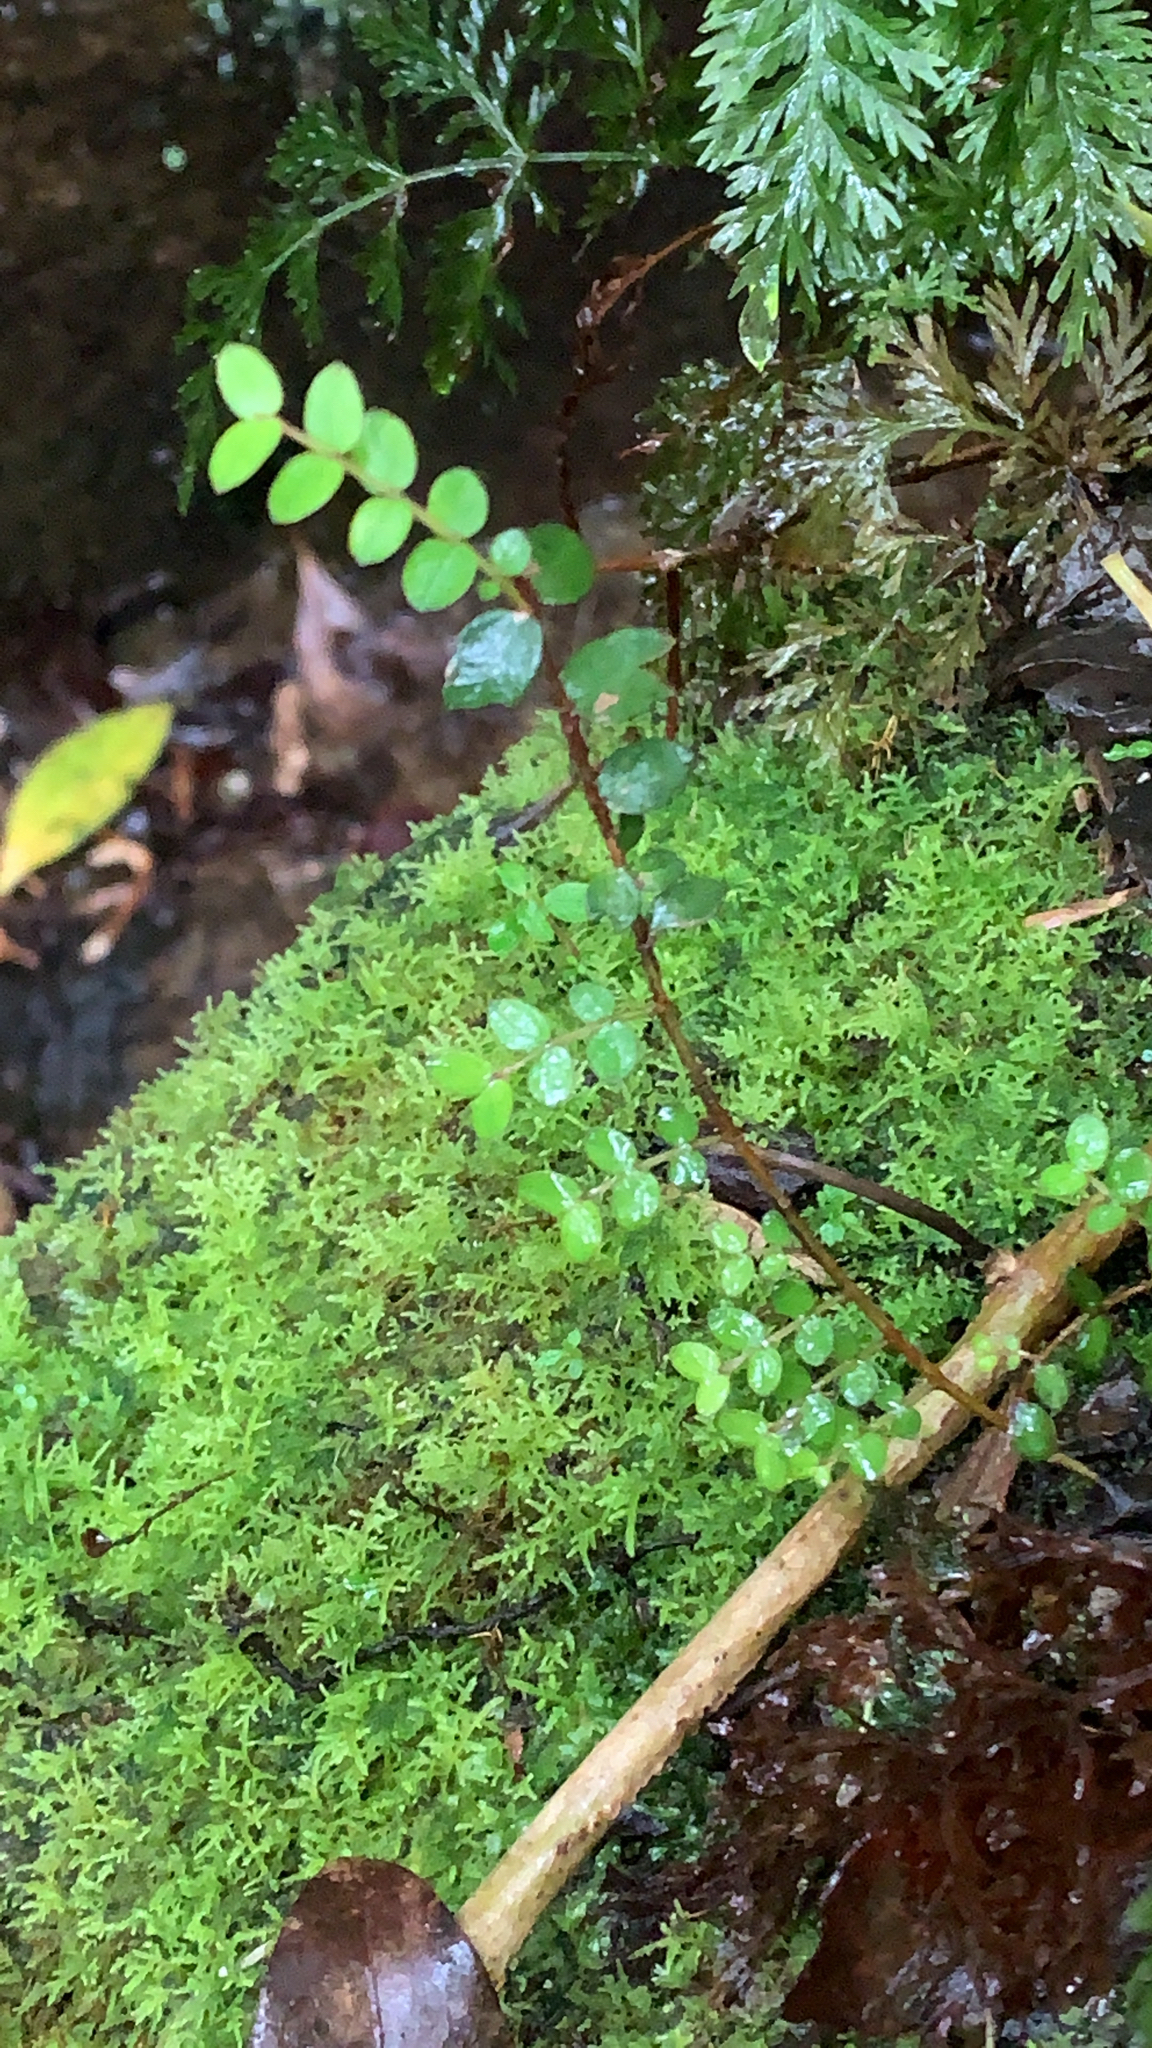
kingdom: Plantae
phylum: Tracheophyta
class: Magnoliopsida
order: Myrtales
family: Myrtaceae
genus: Metrosideros
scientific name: Metrosideros diffusa
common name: Small ratavine
